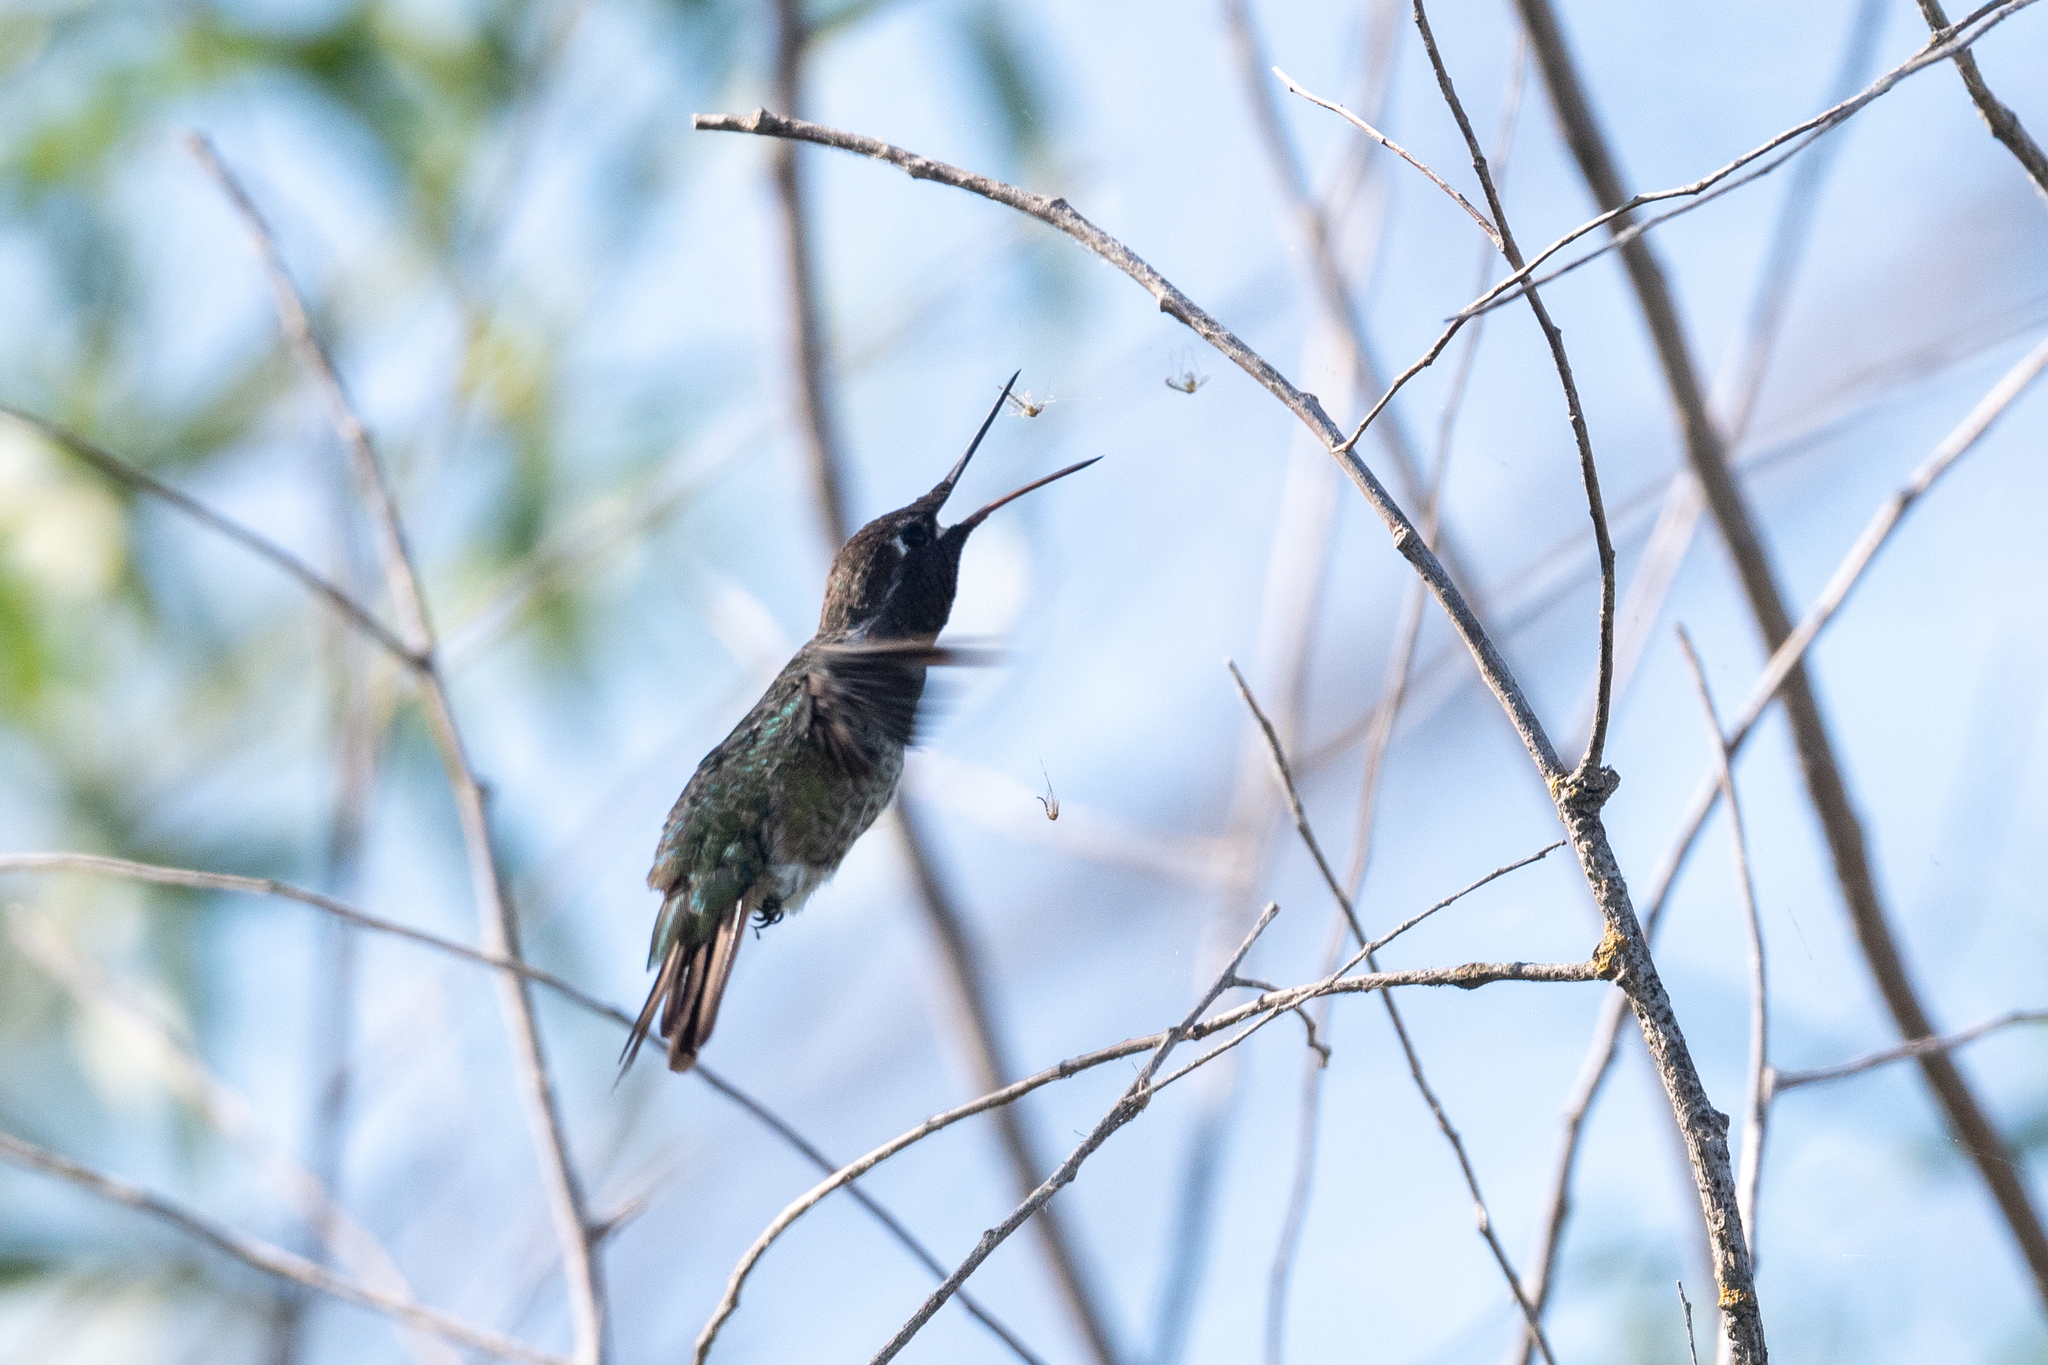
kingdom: Animalia
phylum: Chordata
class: Aves
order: Apodiformes
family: Trochilidae
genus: Calypte
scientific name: Calypte anna
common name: Anna's hummingbird
